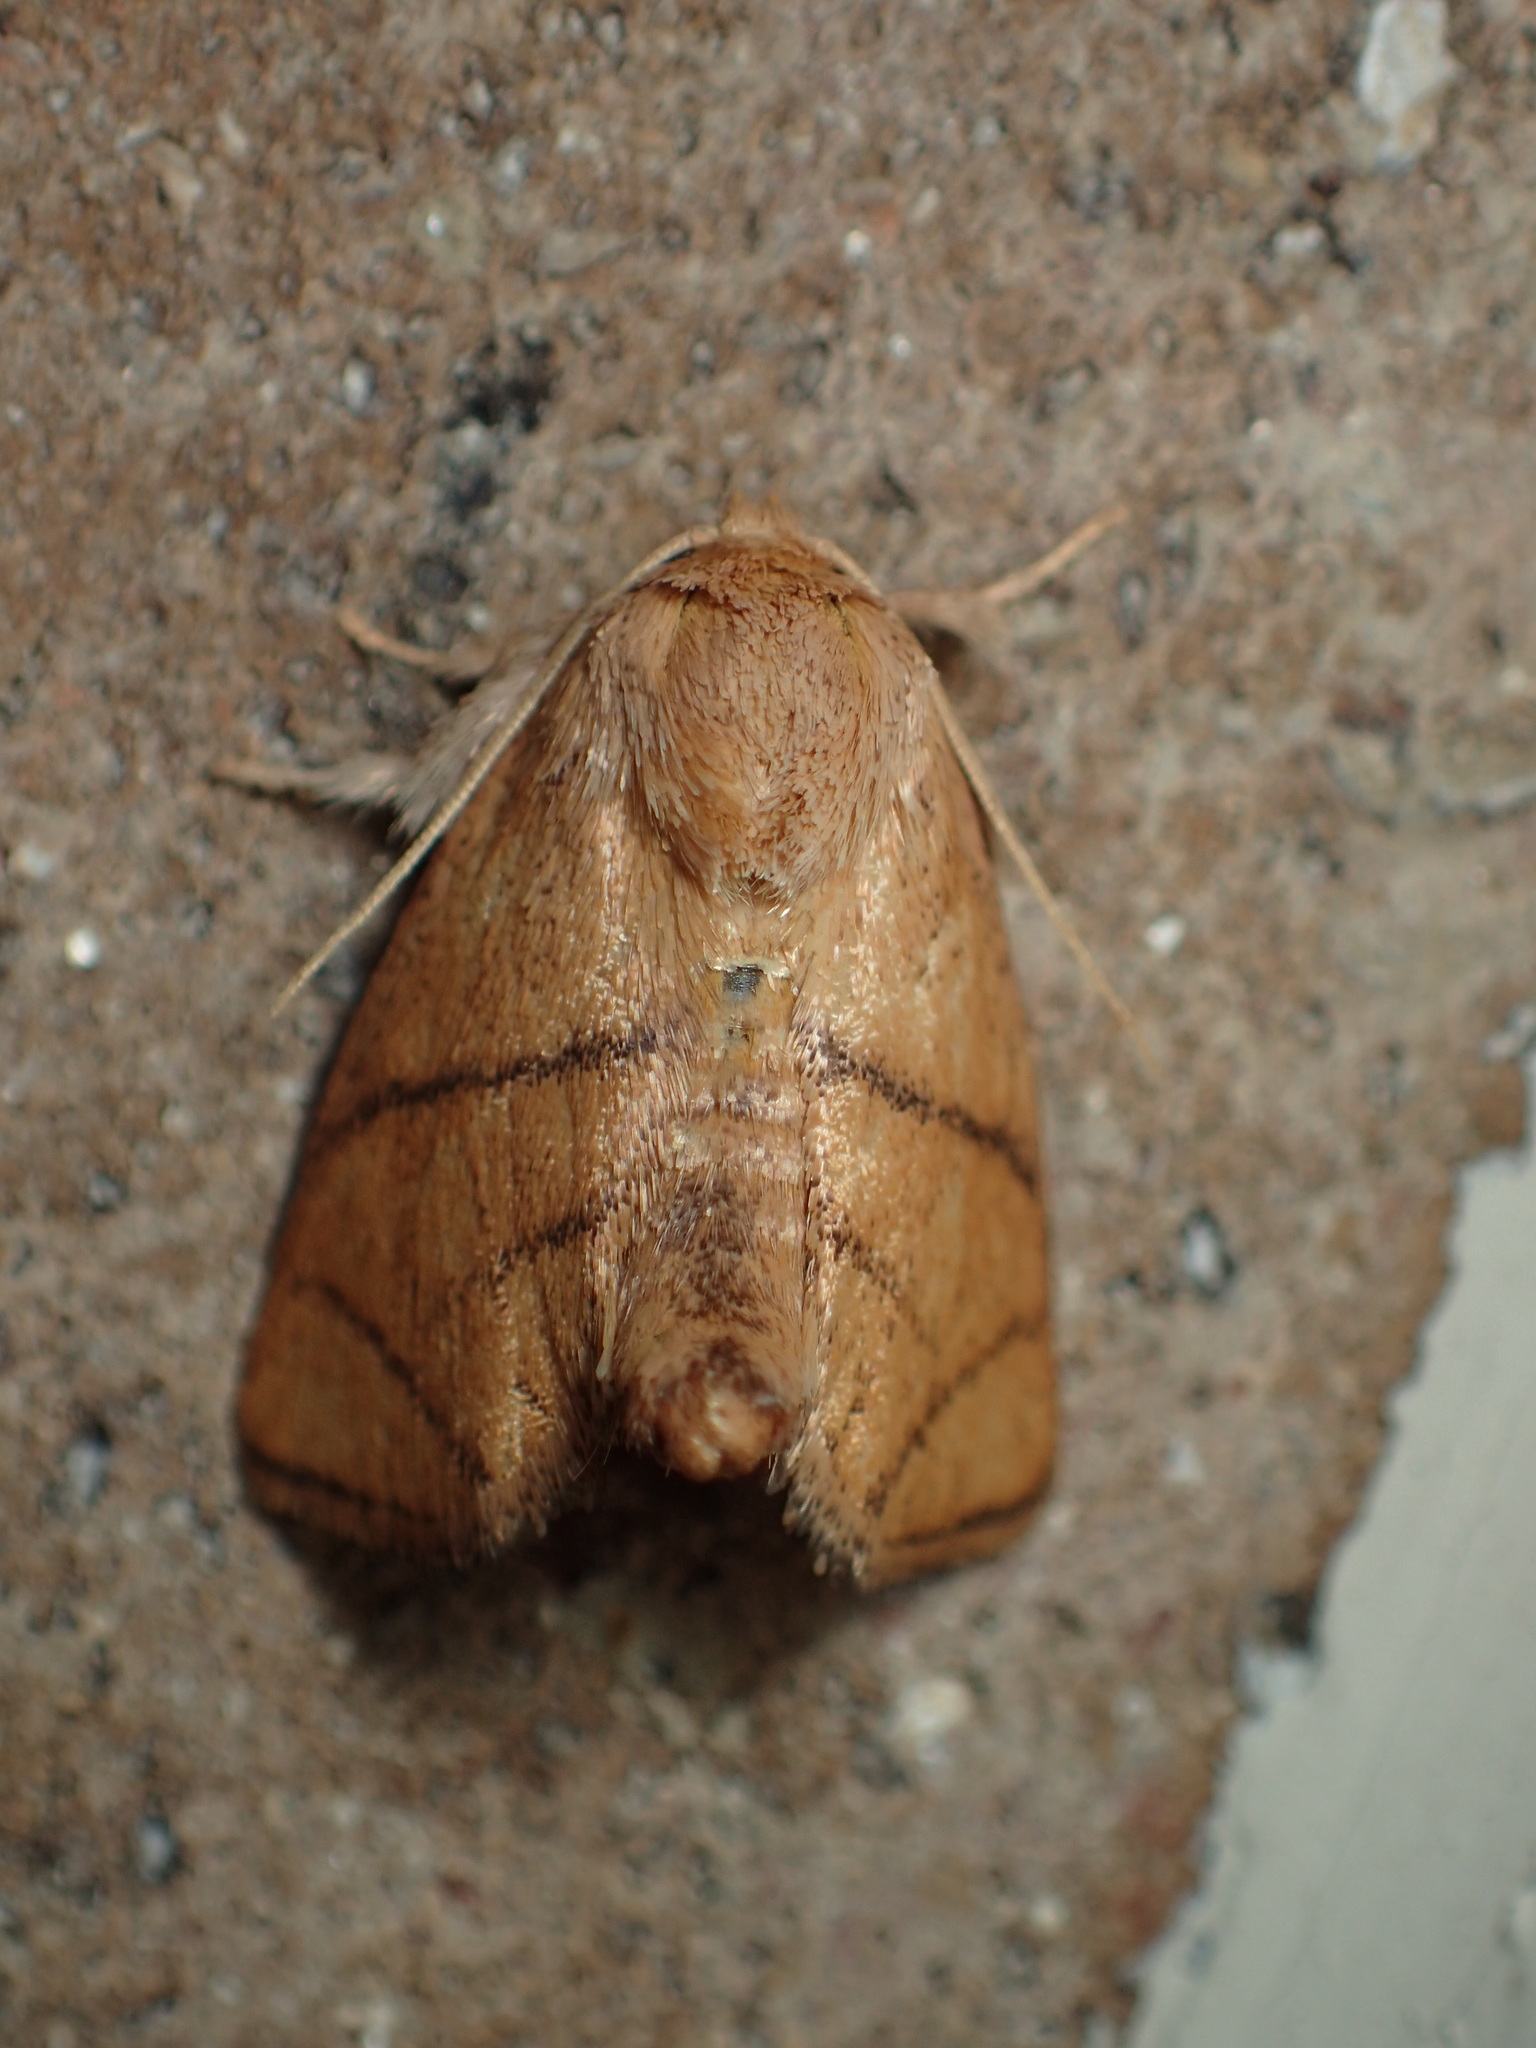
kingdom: Animalia
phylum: Arthropoda
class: Insecta
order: Lepidoptera
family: Limacodidae
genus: Apoda
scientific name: Apoda y-inversa
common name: Yellow-collared slug moth
